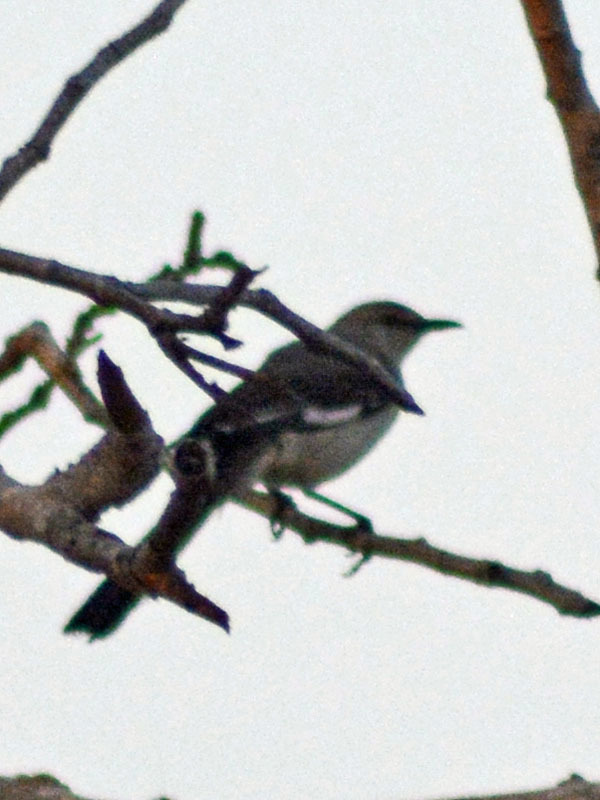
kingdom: Animalia
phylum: Chordata
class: Aves
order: Passeriformes
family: Mimidae
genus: Mimus
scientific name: Mimus polyglottos
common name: Northern mockingbird
